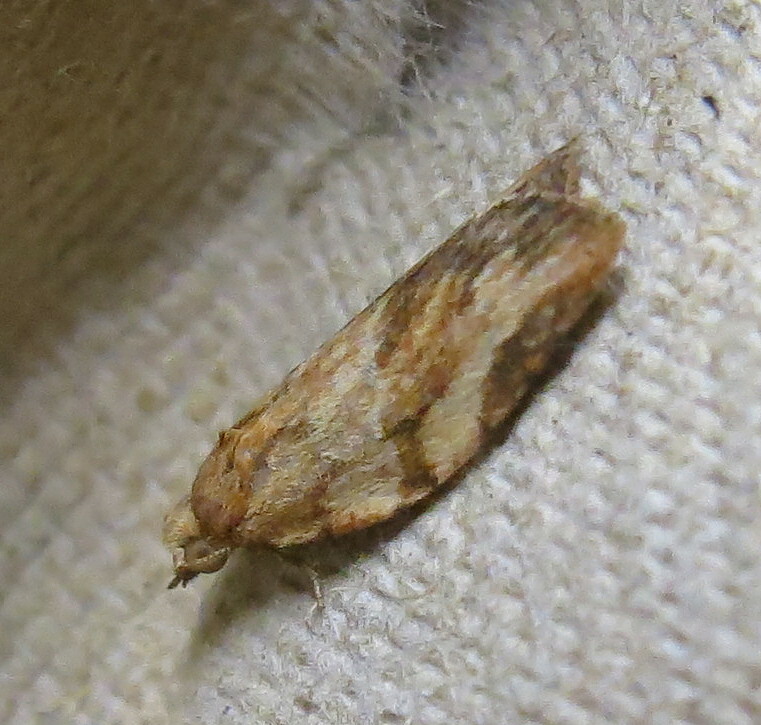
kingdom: Animalia
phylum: Arthropoda
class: Insecta
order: Lepidoptera
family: Tortricidae
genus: Epiphyas
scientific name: Epiphyas postvittana
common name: Light brown apple moth
